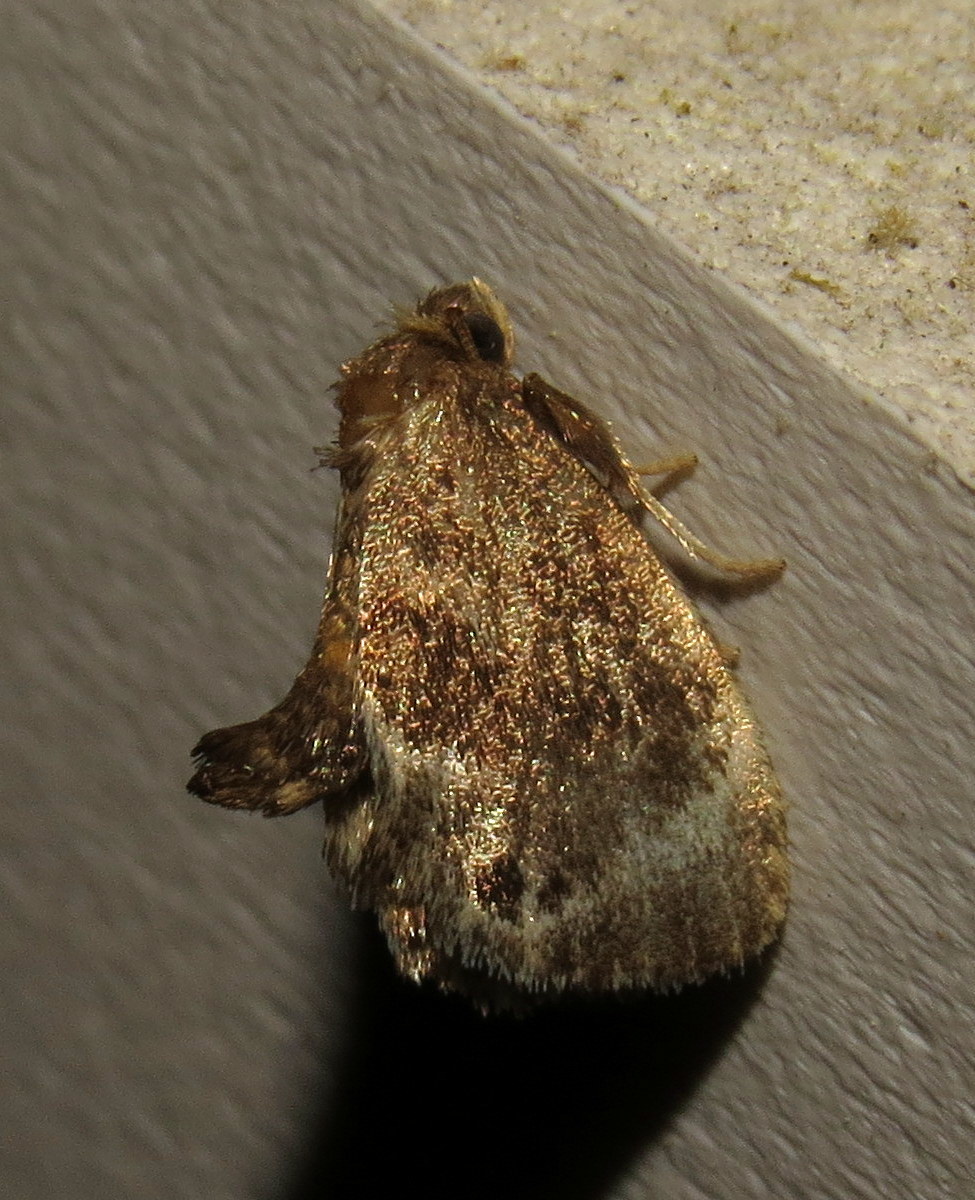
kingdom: Animalia
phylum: Arthropoda
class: Insecta
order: Lepidoptera
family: Limacodidae
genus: Packardia
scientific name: Packardia elegans
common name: Elegant tailed slug moth
